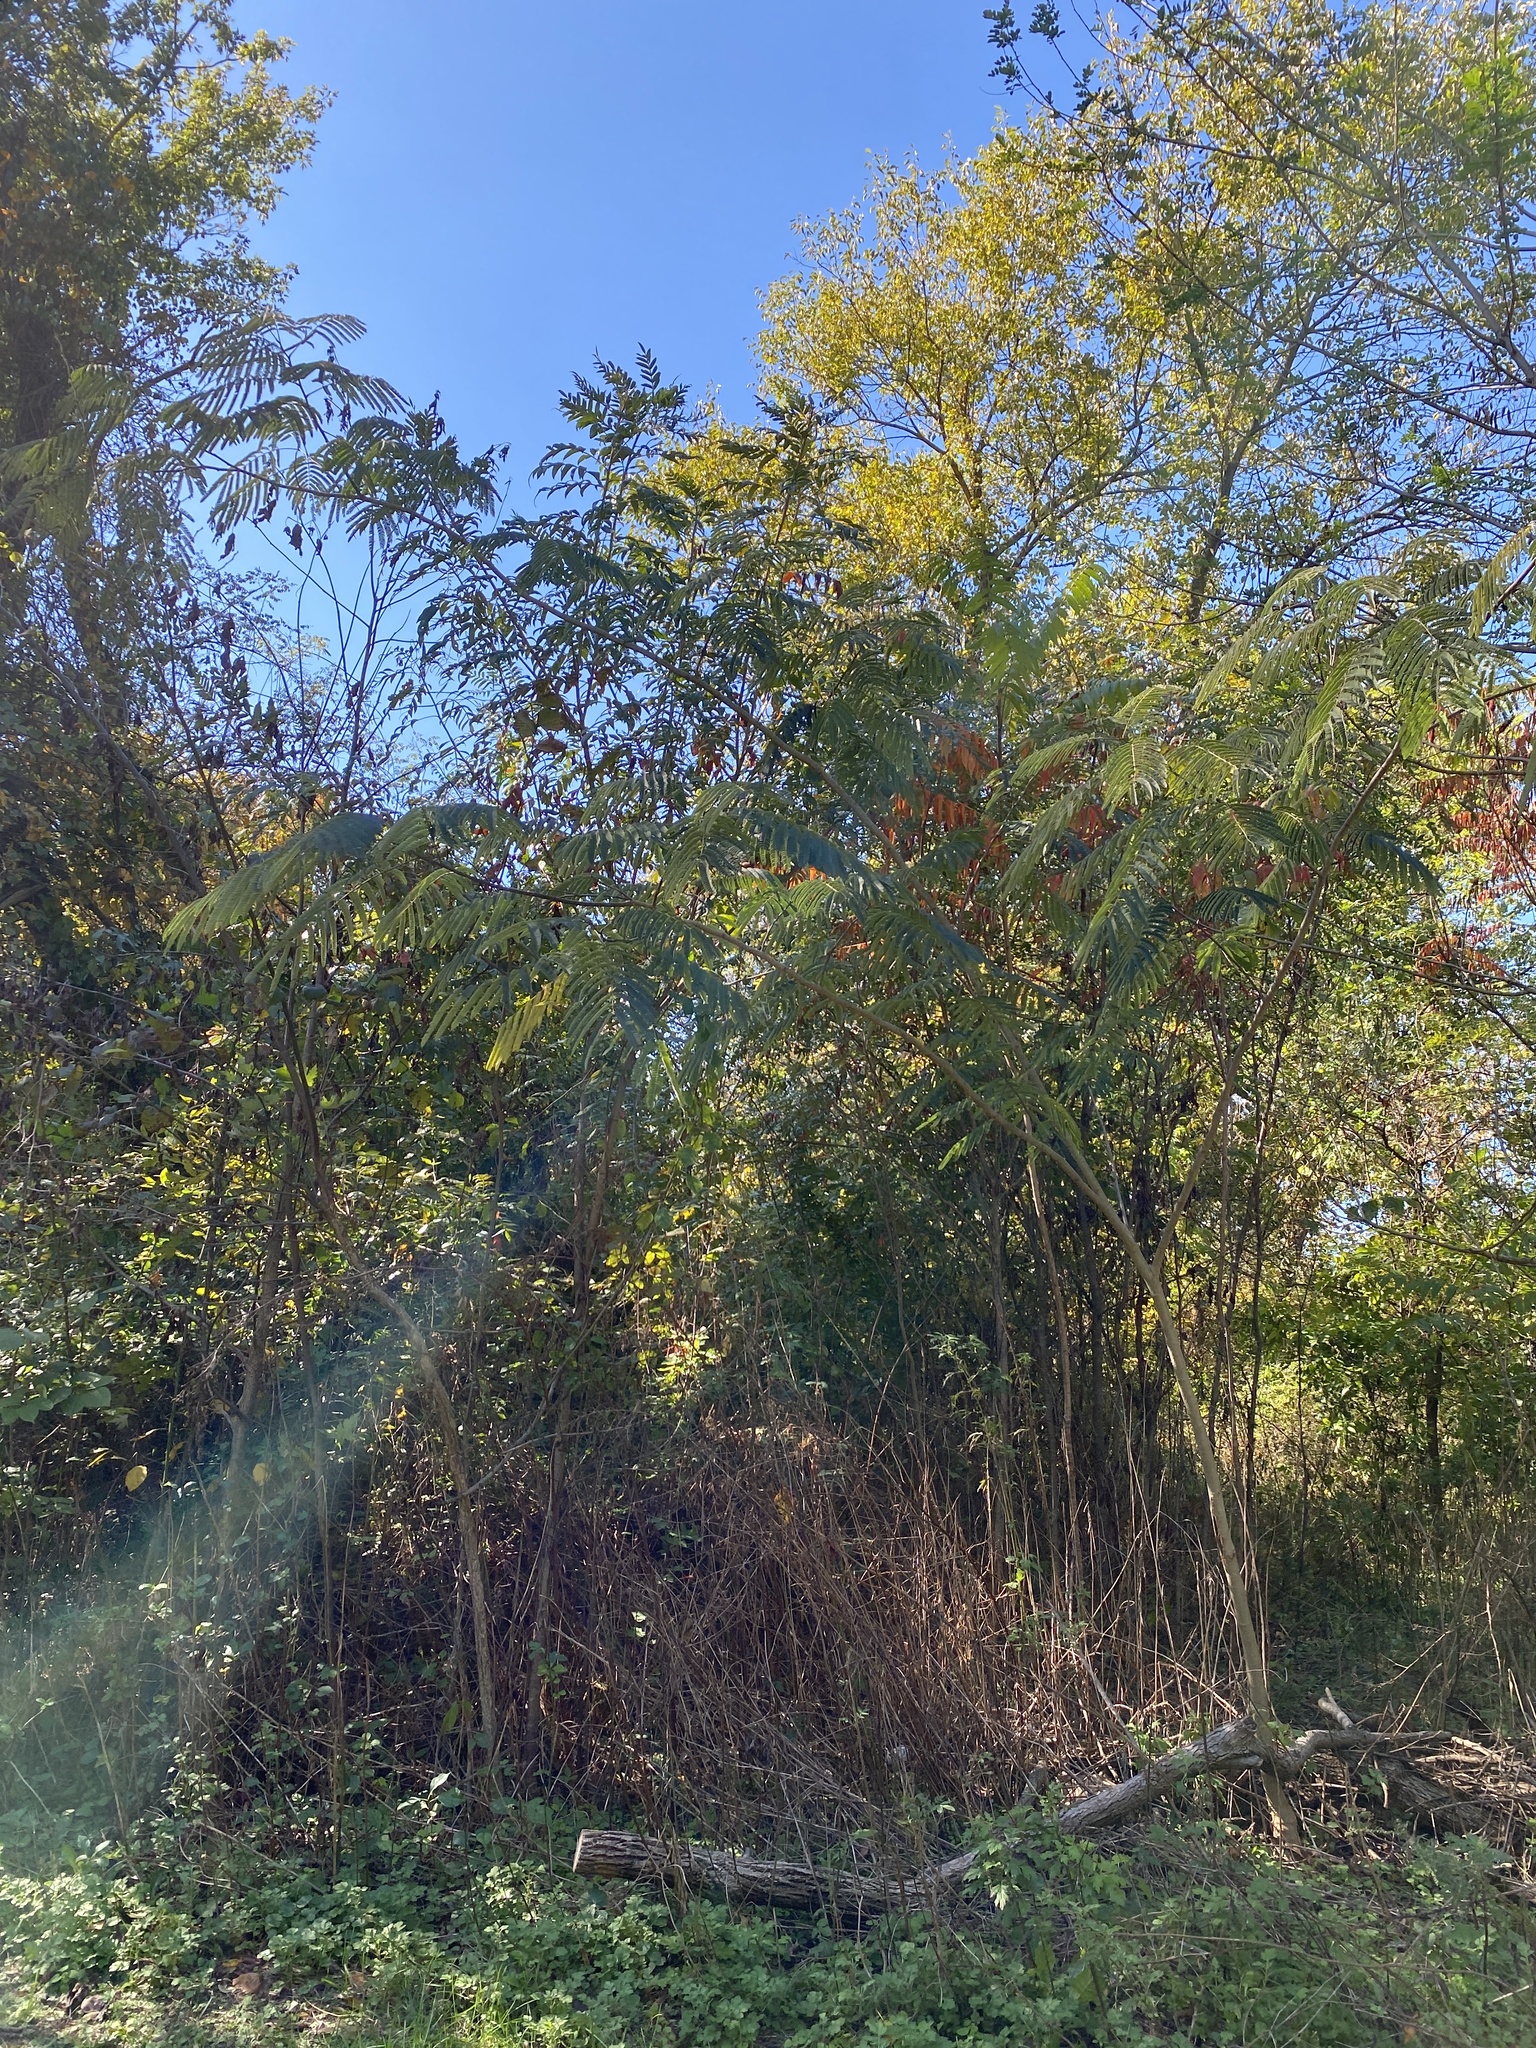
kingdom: Plantae
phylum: Tracheophyta
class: Magnoliopsida
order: Fabales
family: Fabaceae
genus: Albizia
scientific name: Albizia julibrissin
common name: Silktree
